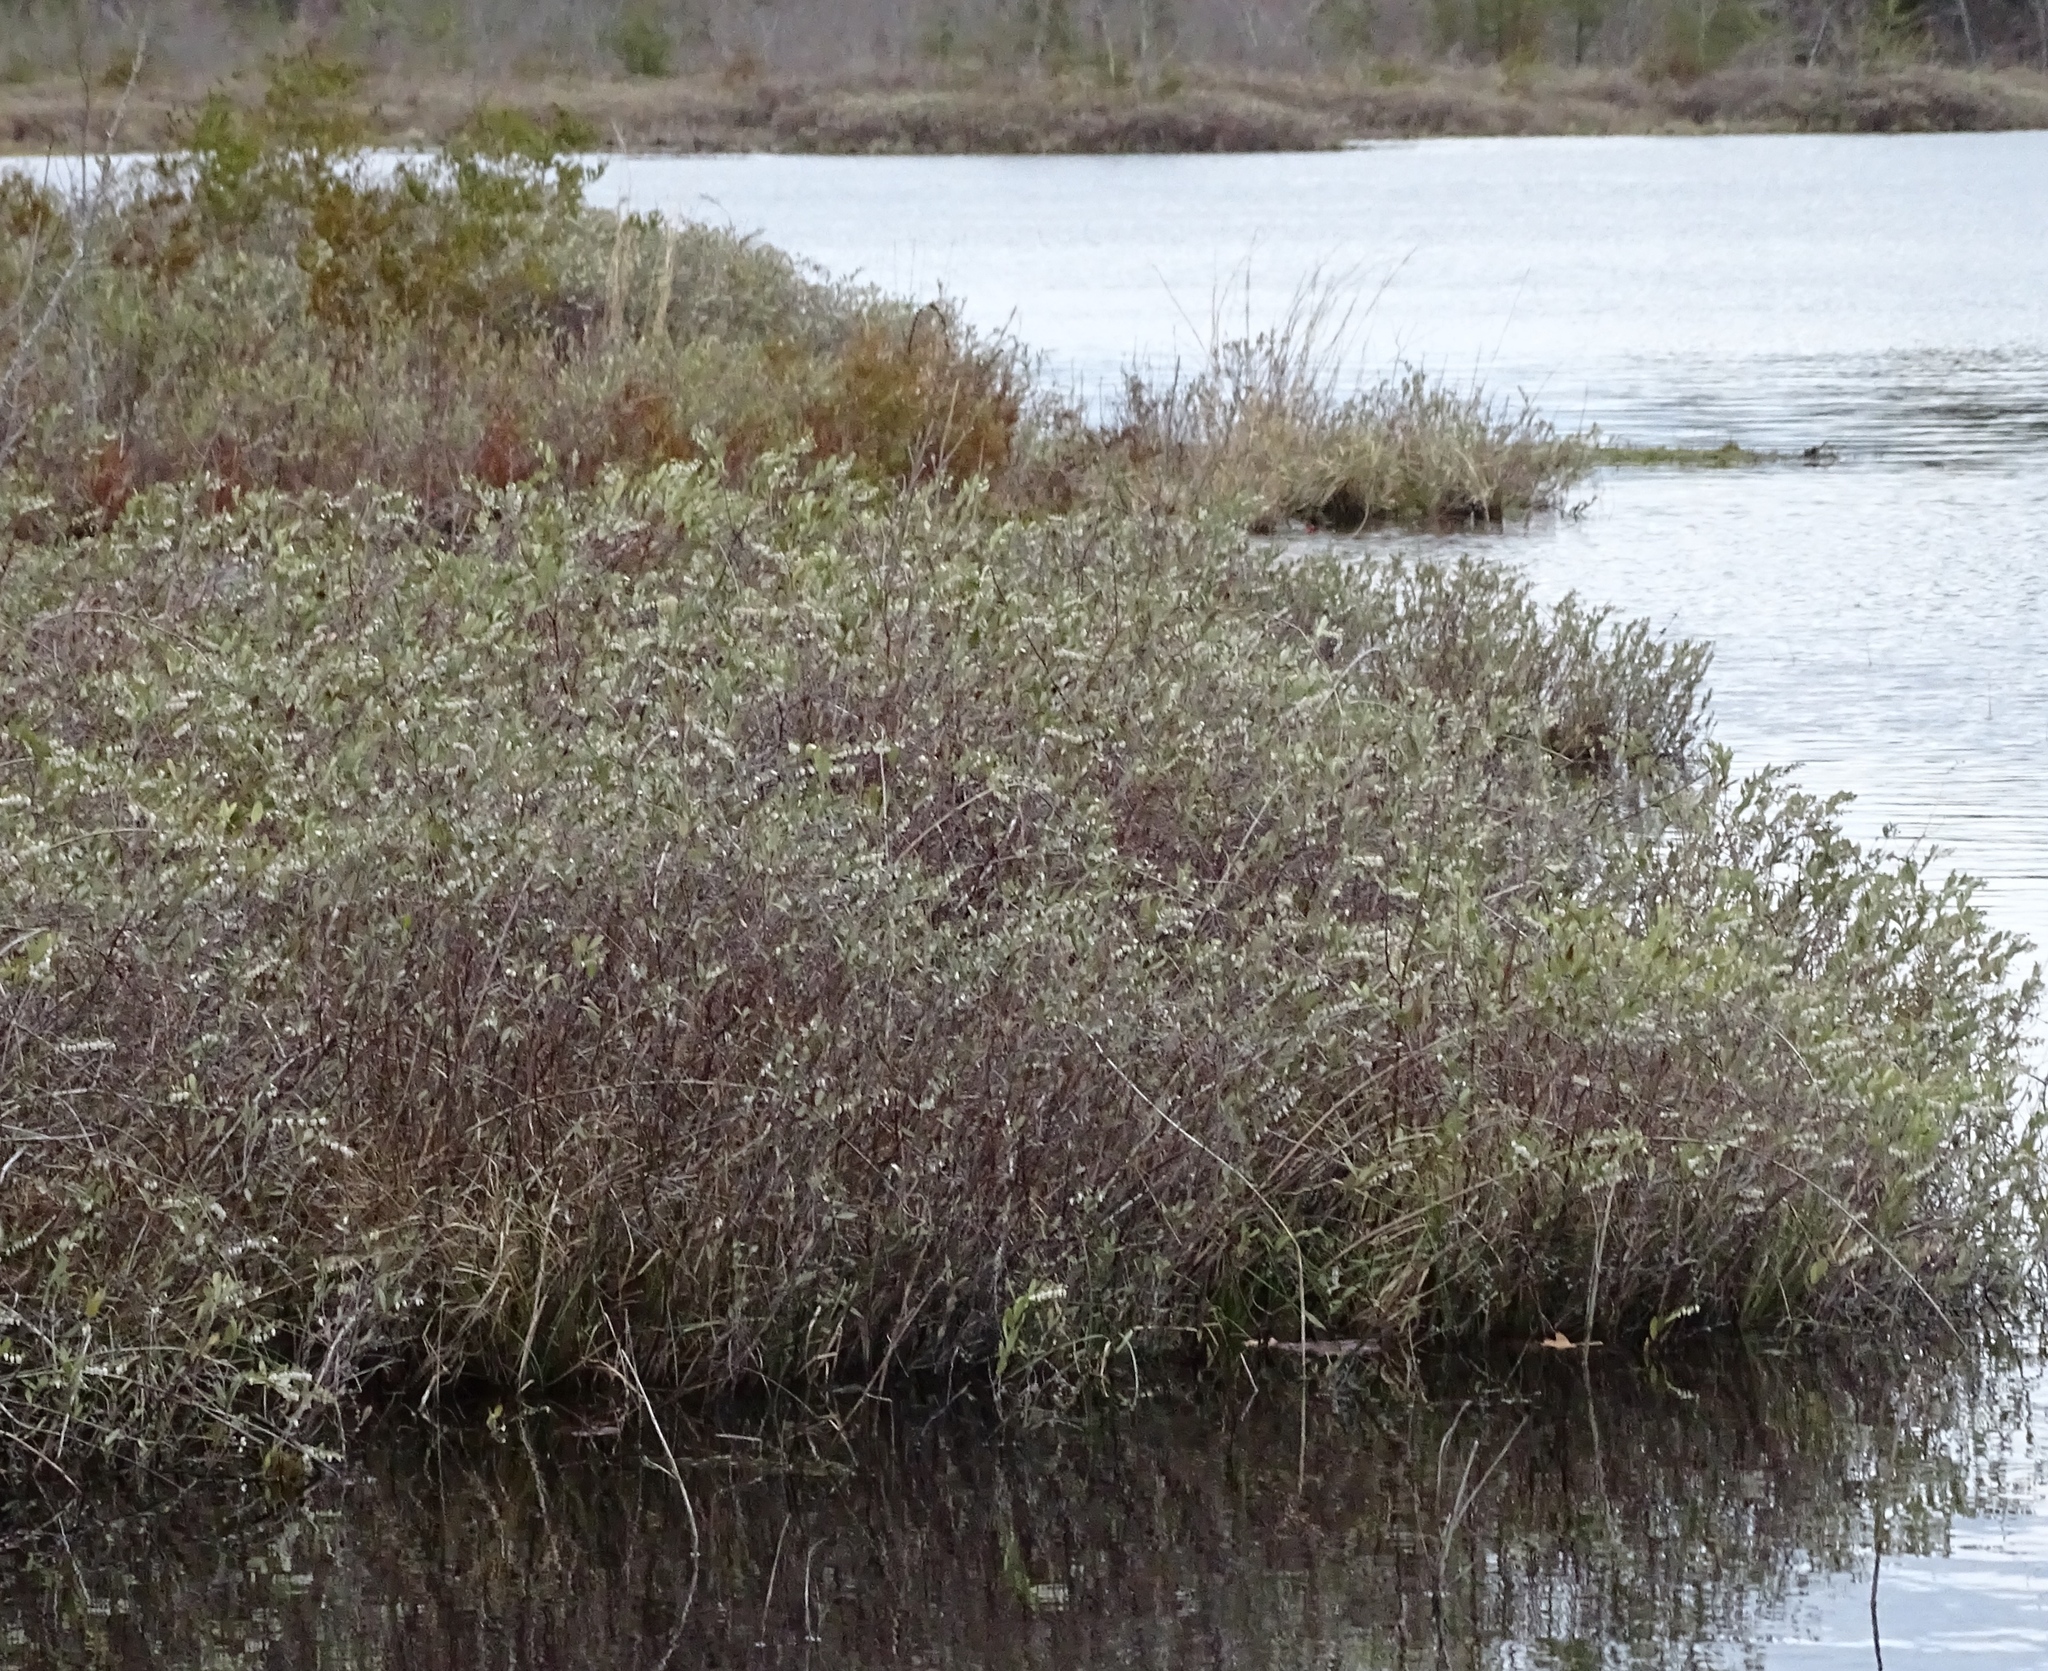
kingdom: Plantae
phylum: Tracheophyta
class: Magnoliopsida
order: Ericales
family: Ericaceae
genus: Chamaedaphne
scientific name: Chamaedaphne calyculata
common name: Leatherleaf
